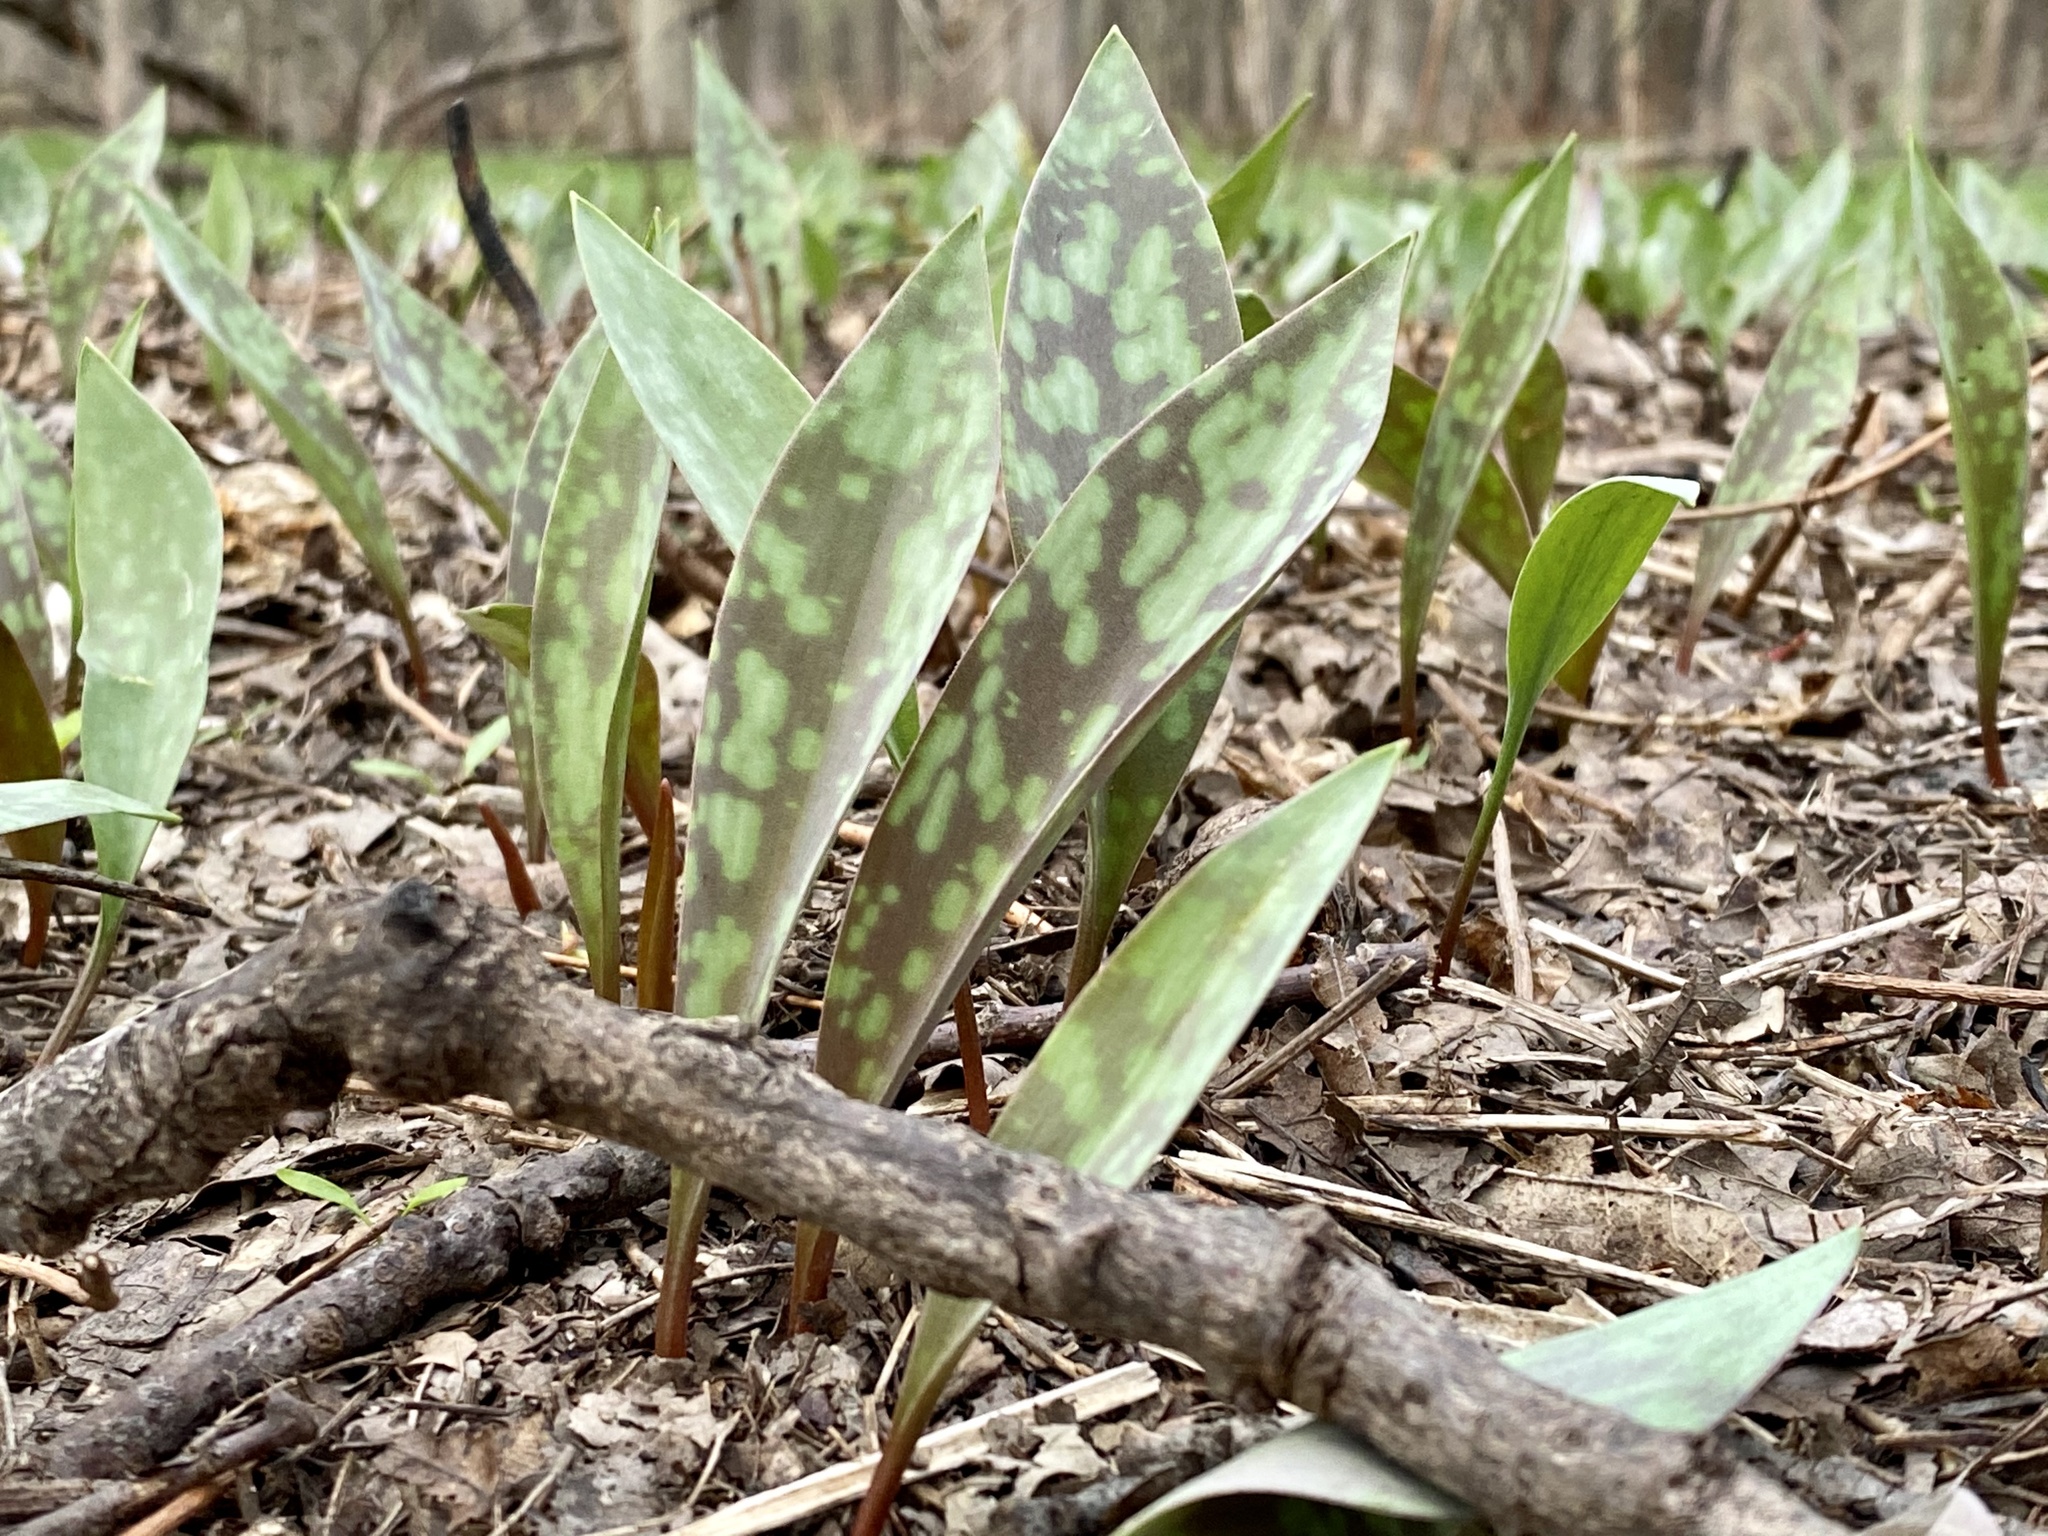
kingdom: Plantae
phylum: Tracheophyta
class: Liliopsida
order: Liliales
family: Liliaceae
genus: Erythronium
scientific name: Erythronium
